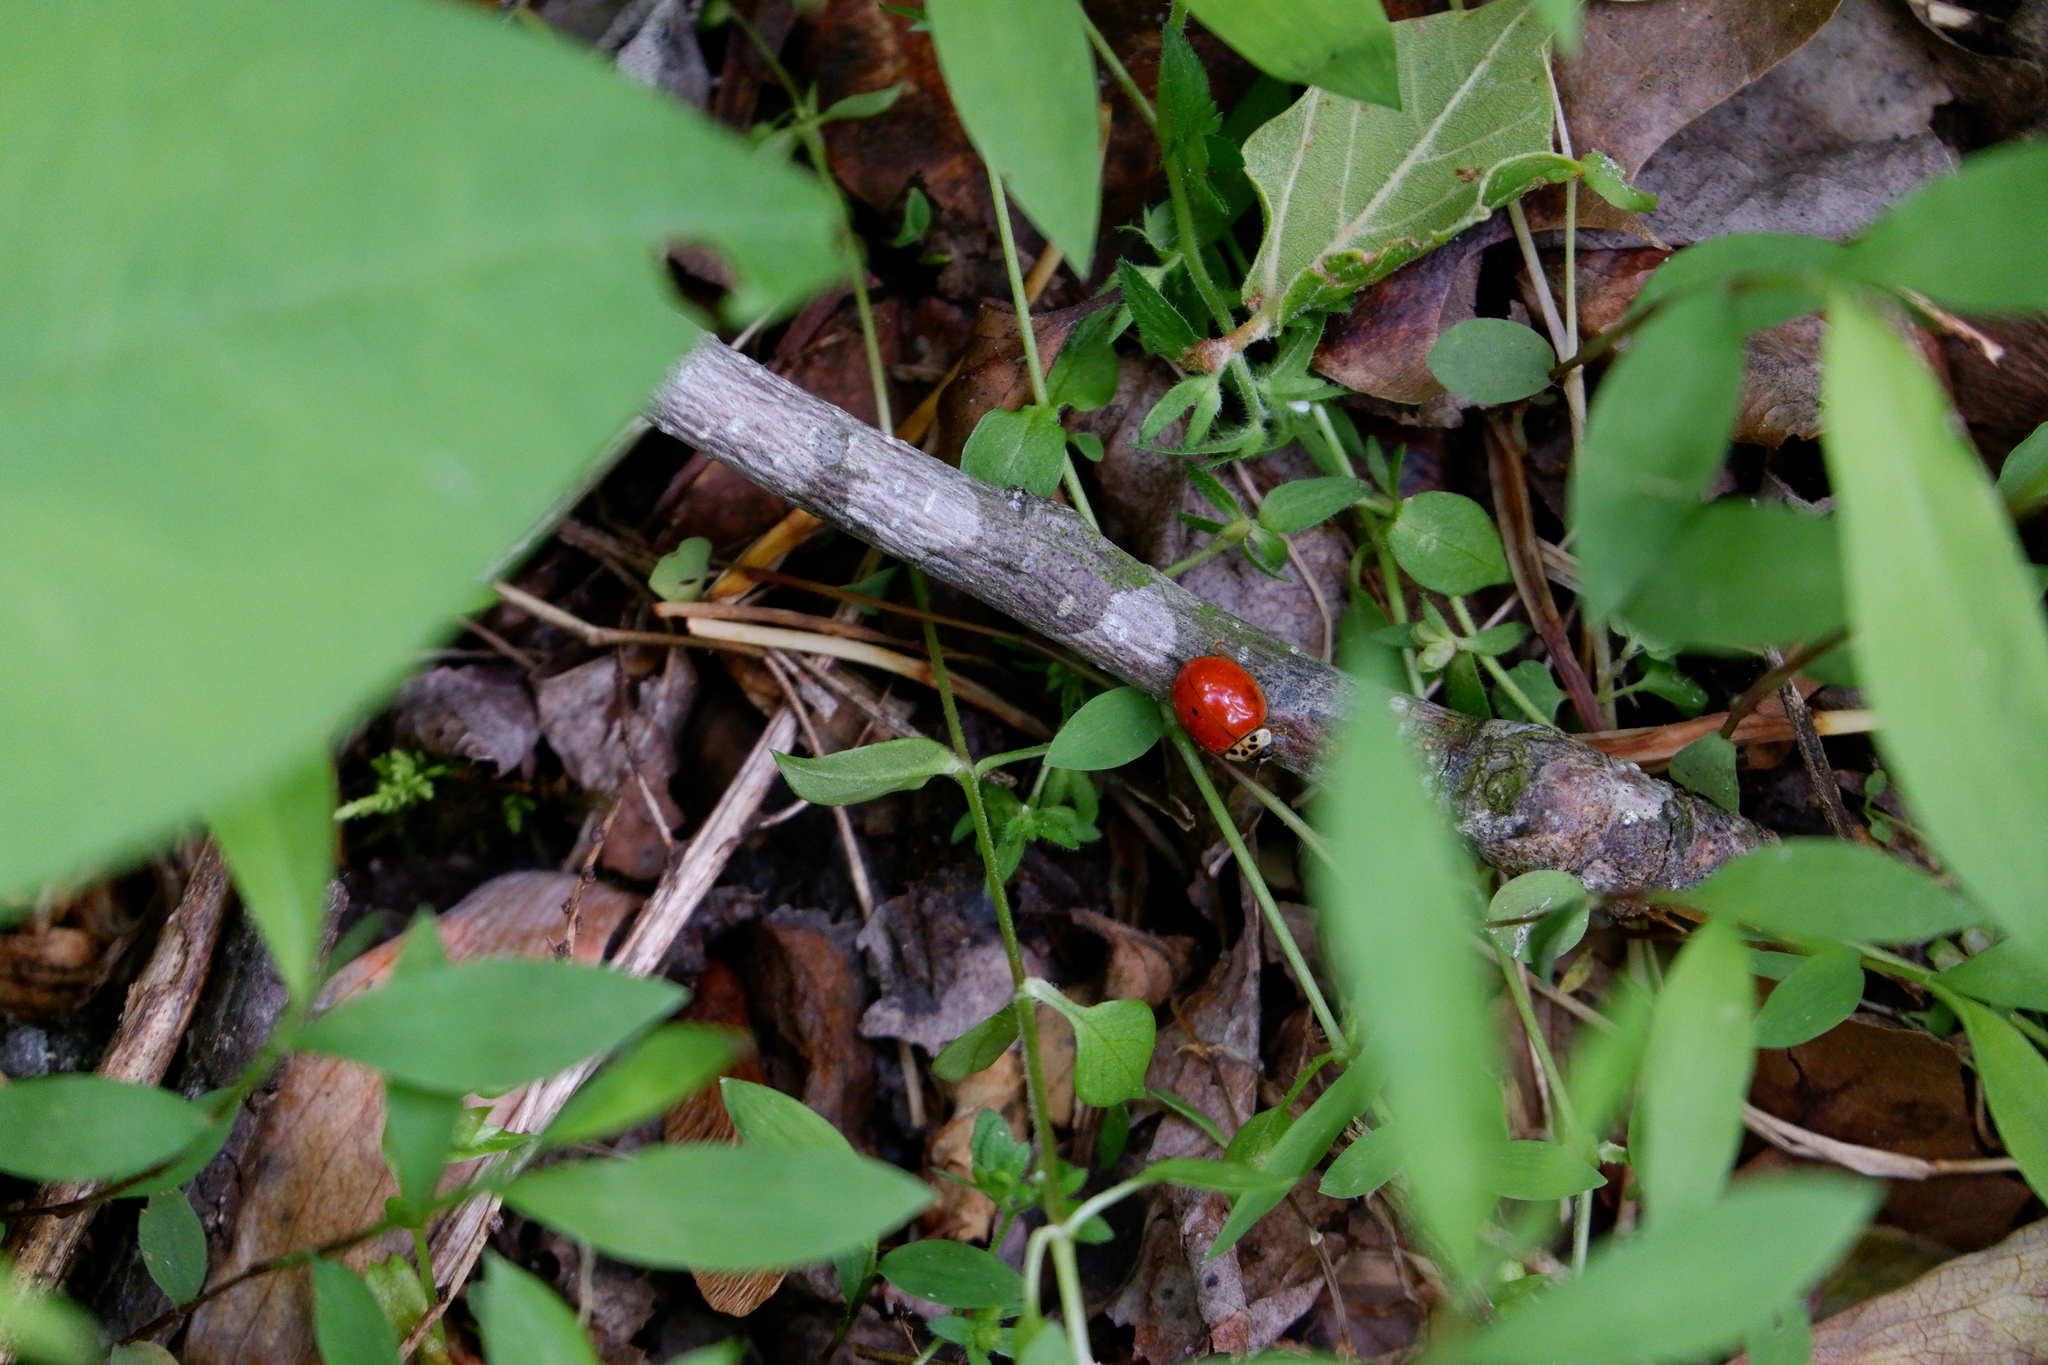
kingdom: Animalia
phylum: Arthropoda
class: Insecta
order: Coleoptera
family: Coccinellidae
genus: Harmonia
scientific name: Harmonia axyridis
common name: Harlequin ladybird
